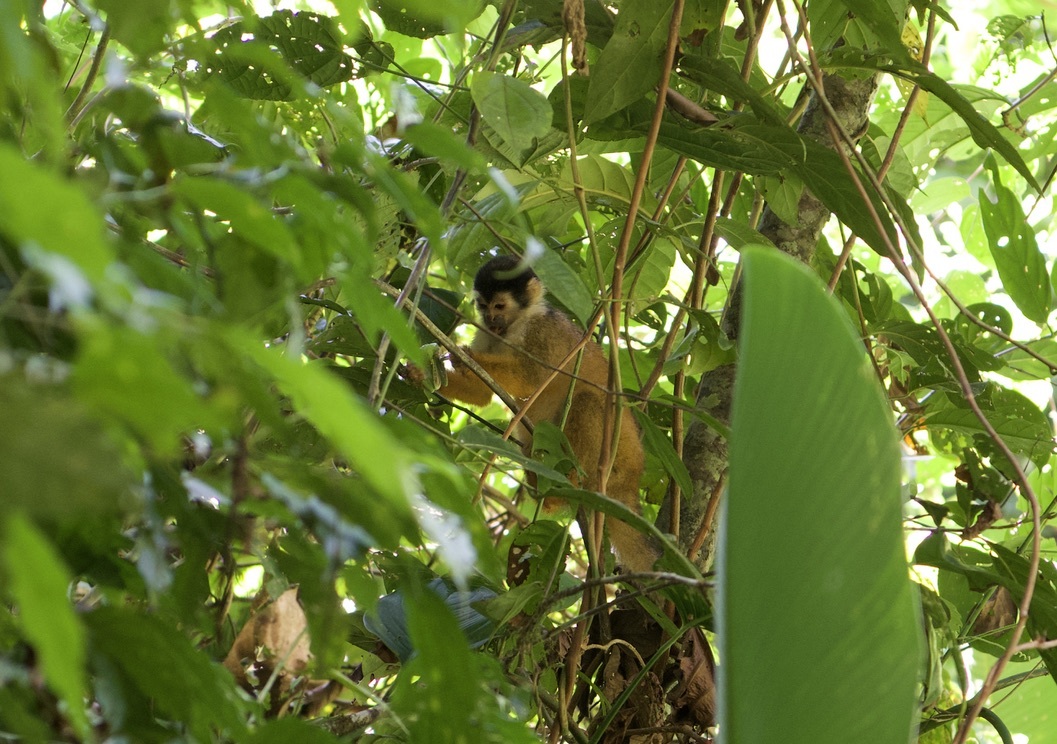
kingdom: Animalia
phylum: Chordata
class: Mammalia
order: Primates
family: Cebidae
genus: Saimiri
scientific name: Saimiri oerstedii
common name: Central american squirrel monkey
